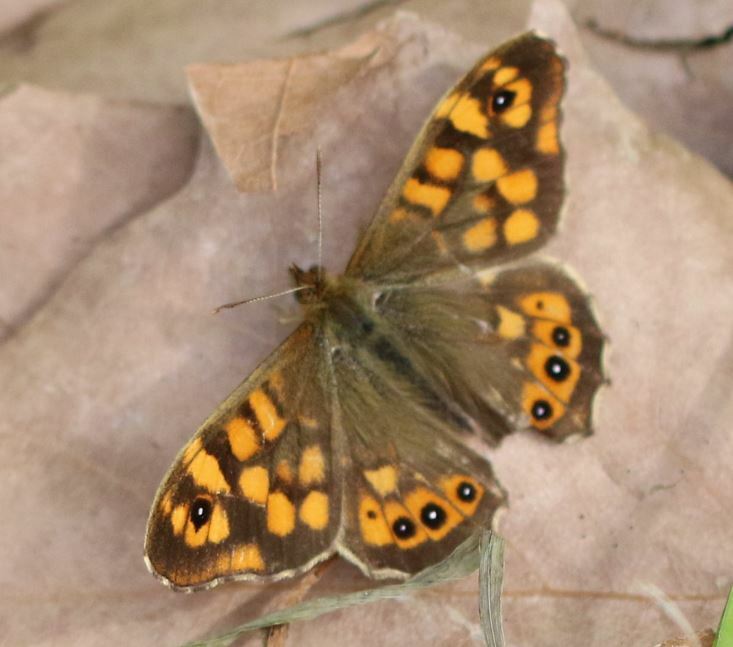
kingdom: Animalia
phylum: Arthropoda
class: Insecta
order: Lepidoptera
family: Nymphalidae
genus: Pararge
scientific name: Pararge aegeria
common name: Speckled wood
